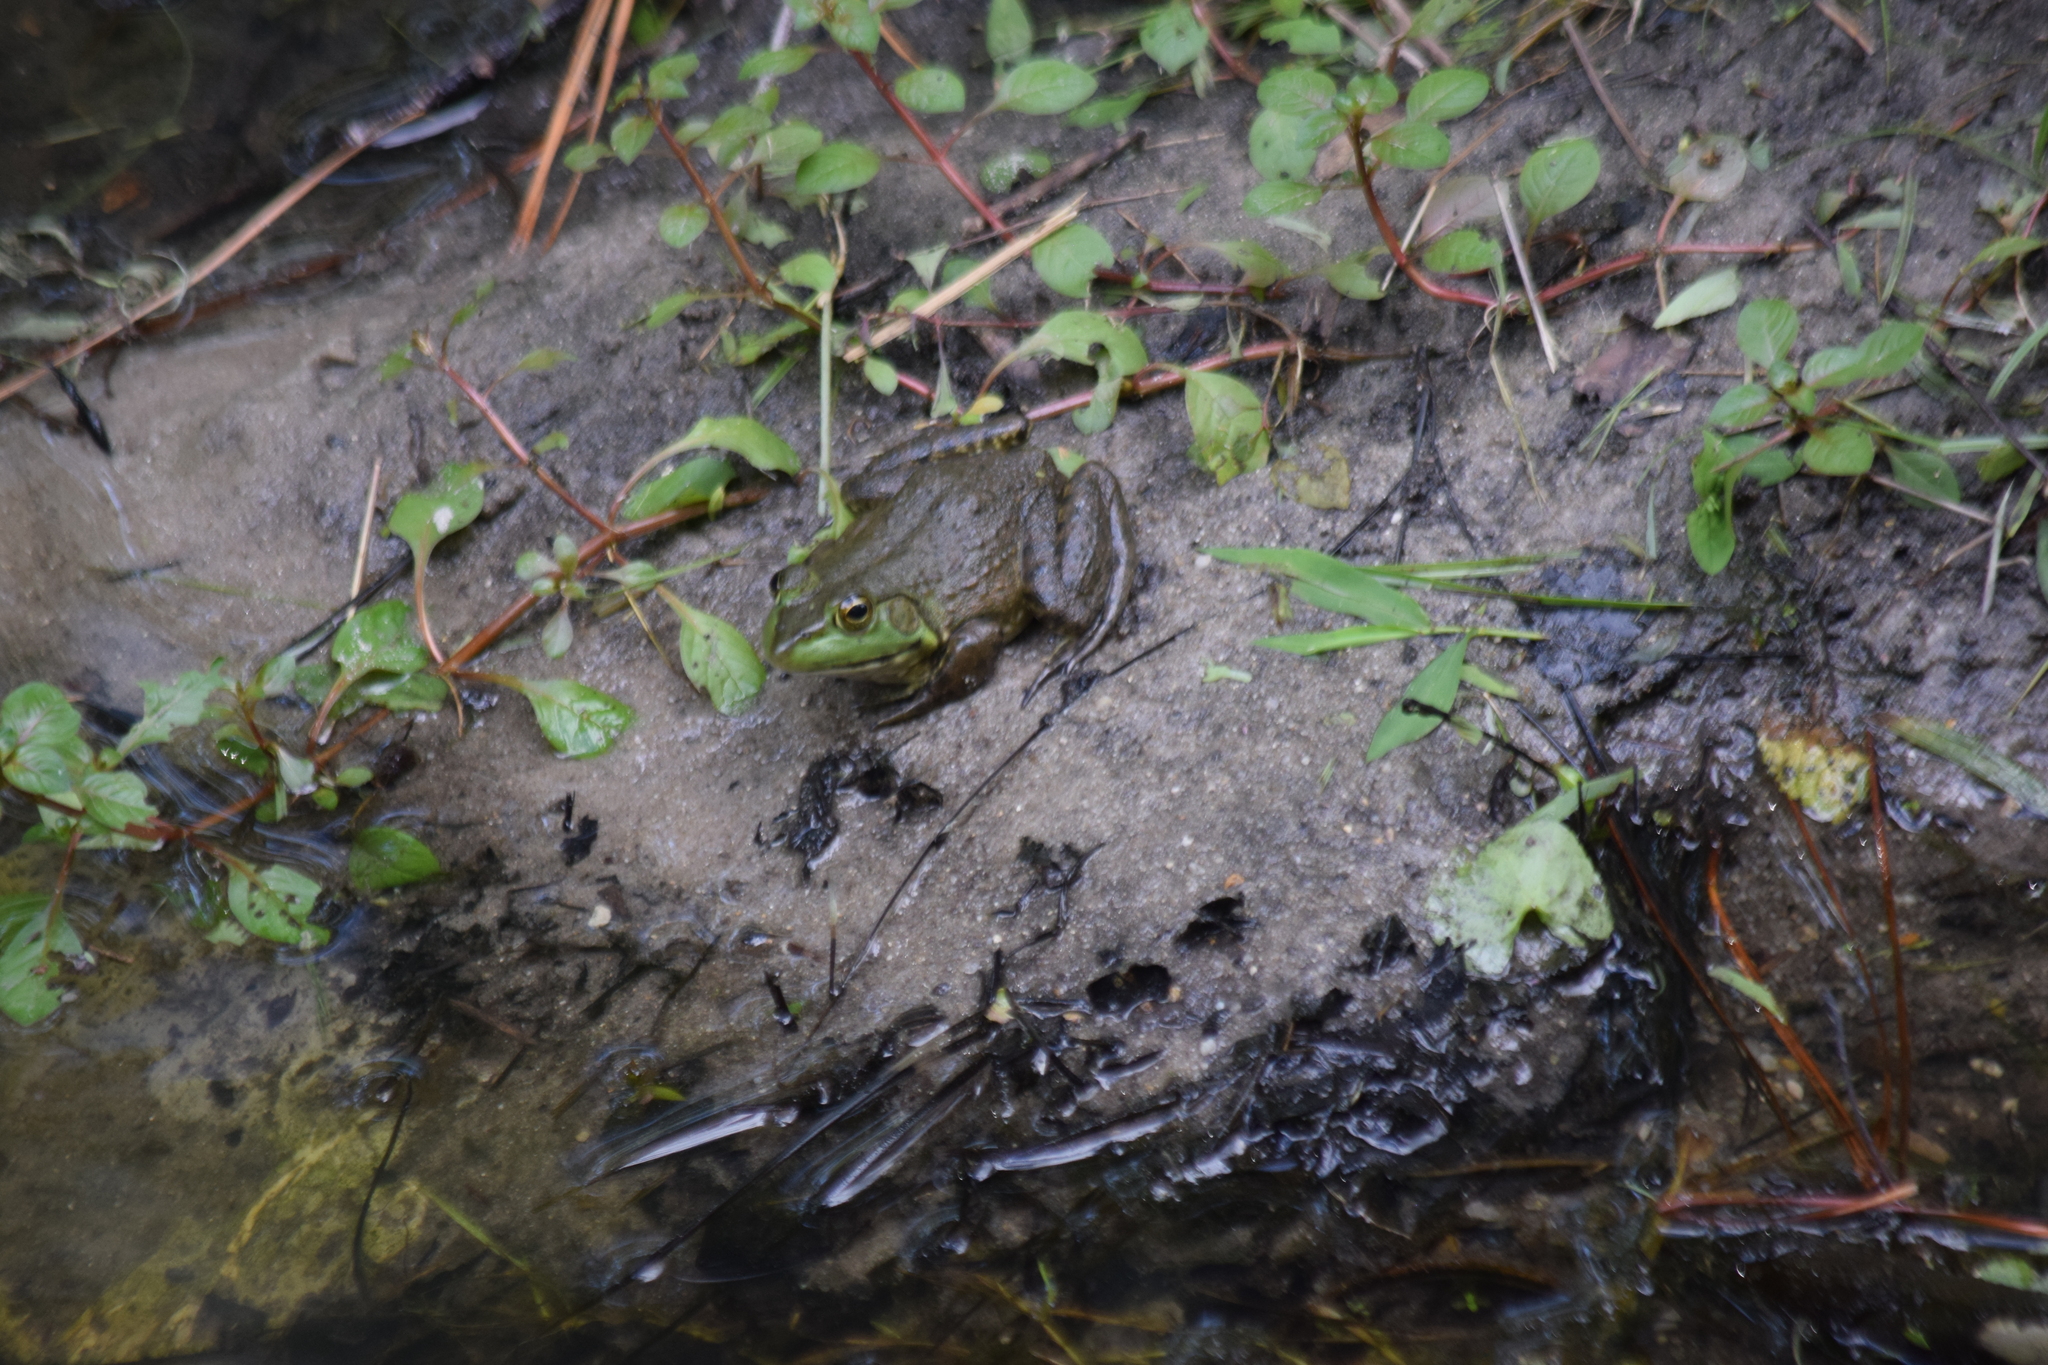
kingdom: Animalia
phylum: Chordata
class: Amphibia
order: Anura
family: Ranidae
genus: Lithobates
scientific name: Lithobates catesbeianus
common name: American bullfrog
